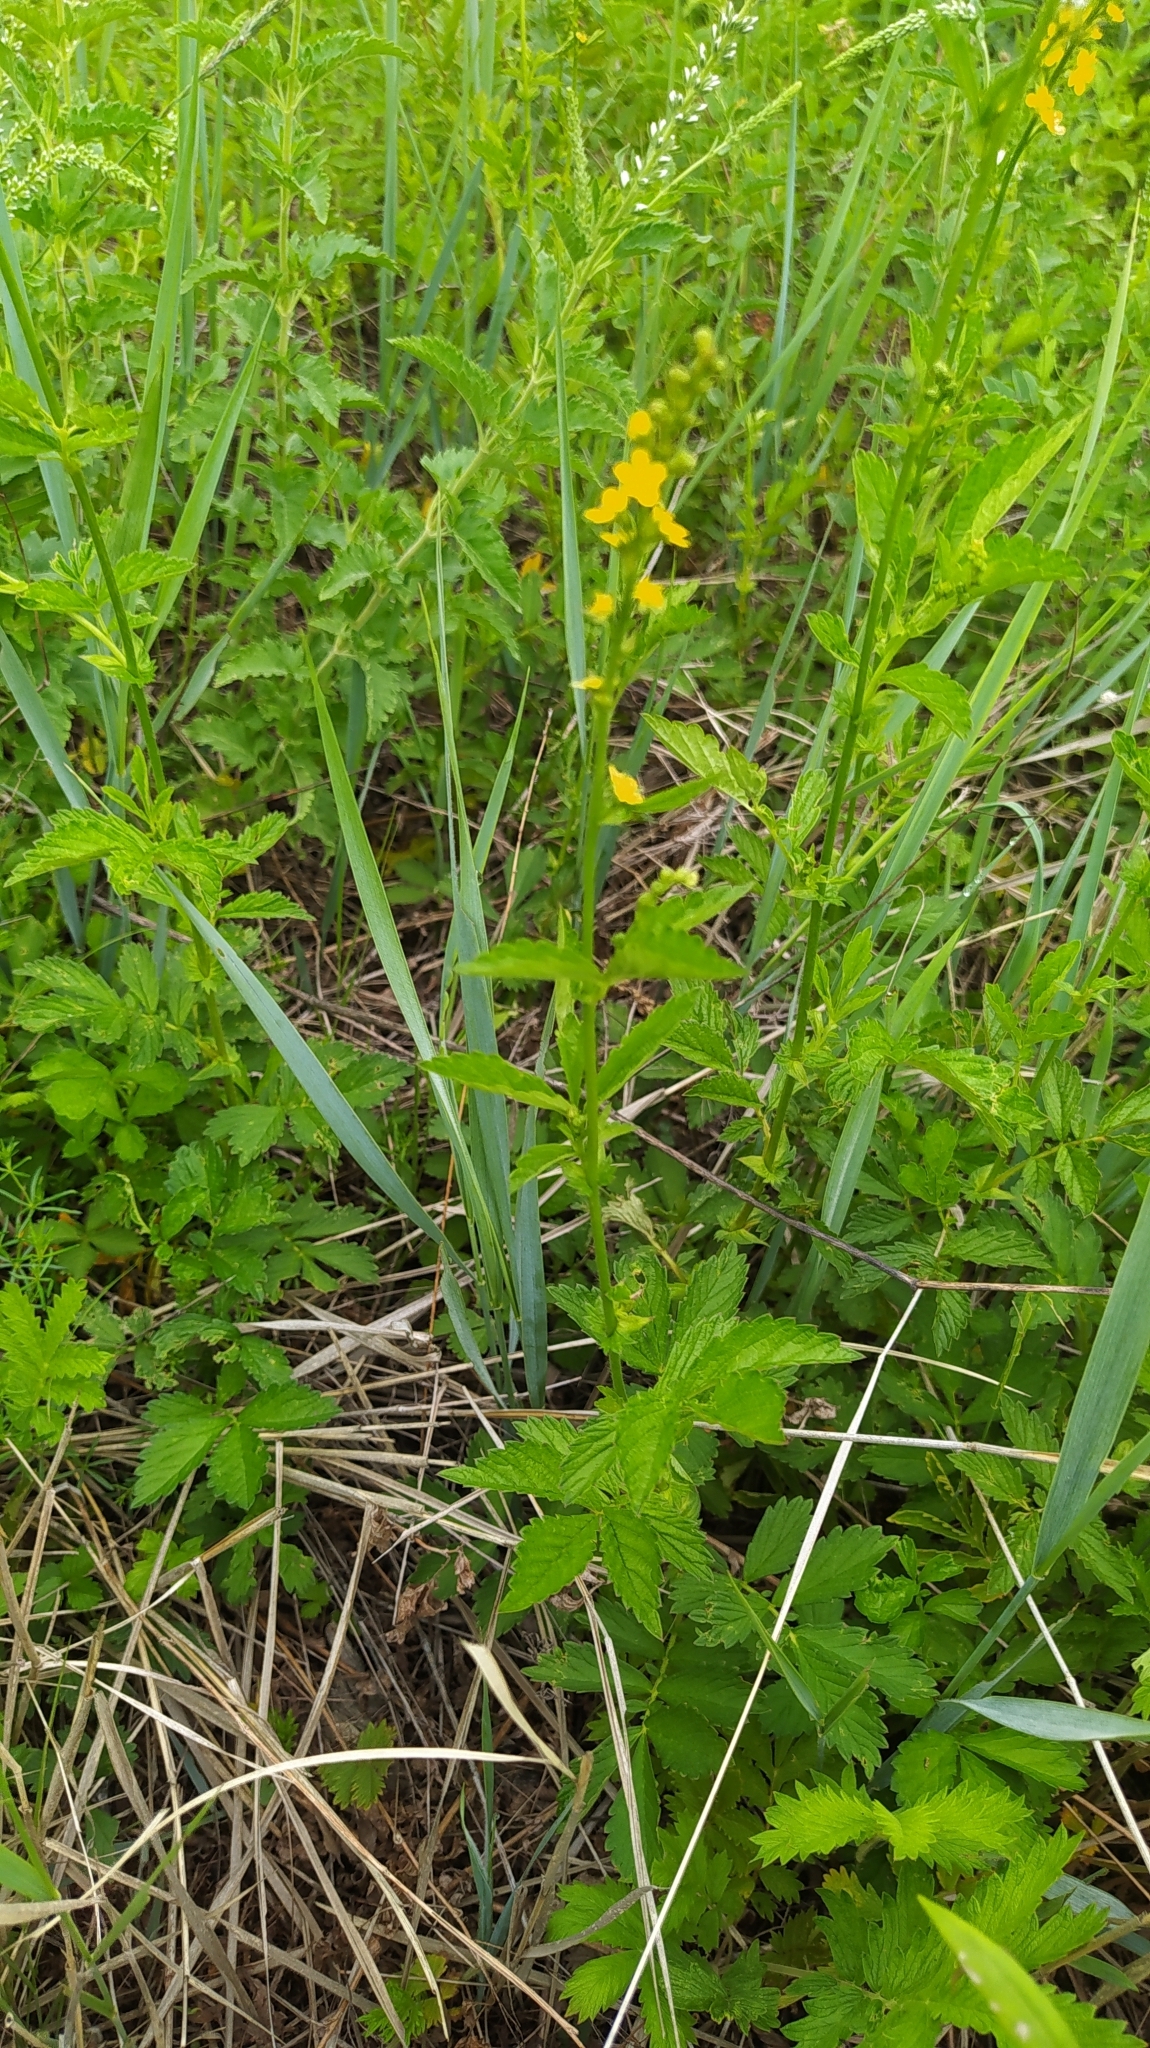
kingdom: Plantae
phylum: Tracheophyta
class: Magnoliopsida
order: Rosales
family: Rosaceae
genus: Agrimonia
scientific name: Agrimonia pilosa
